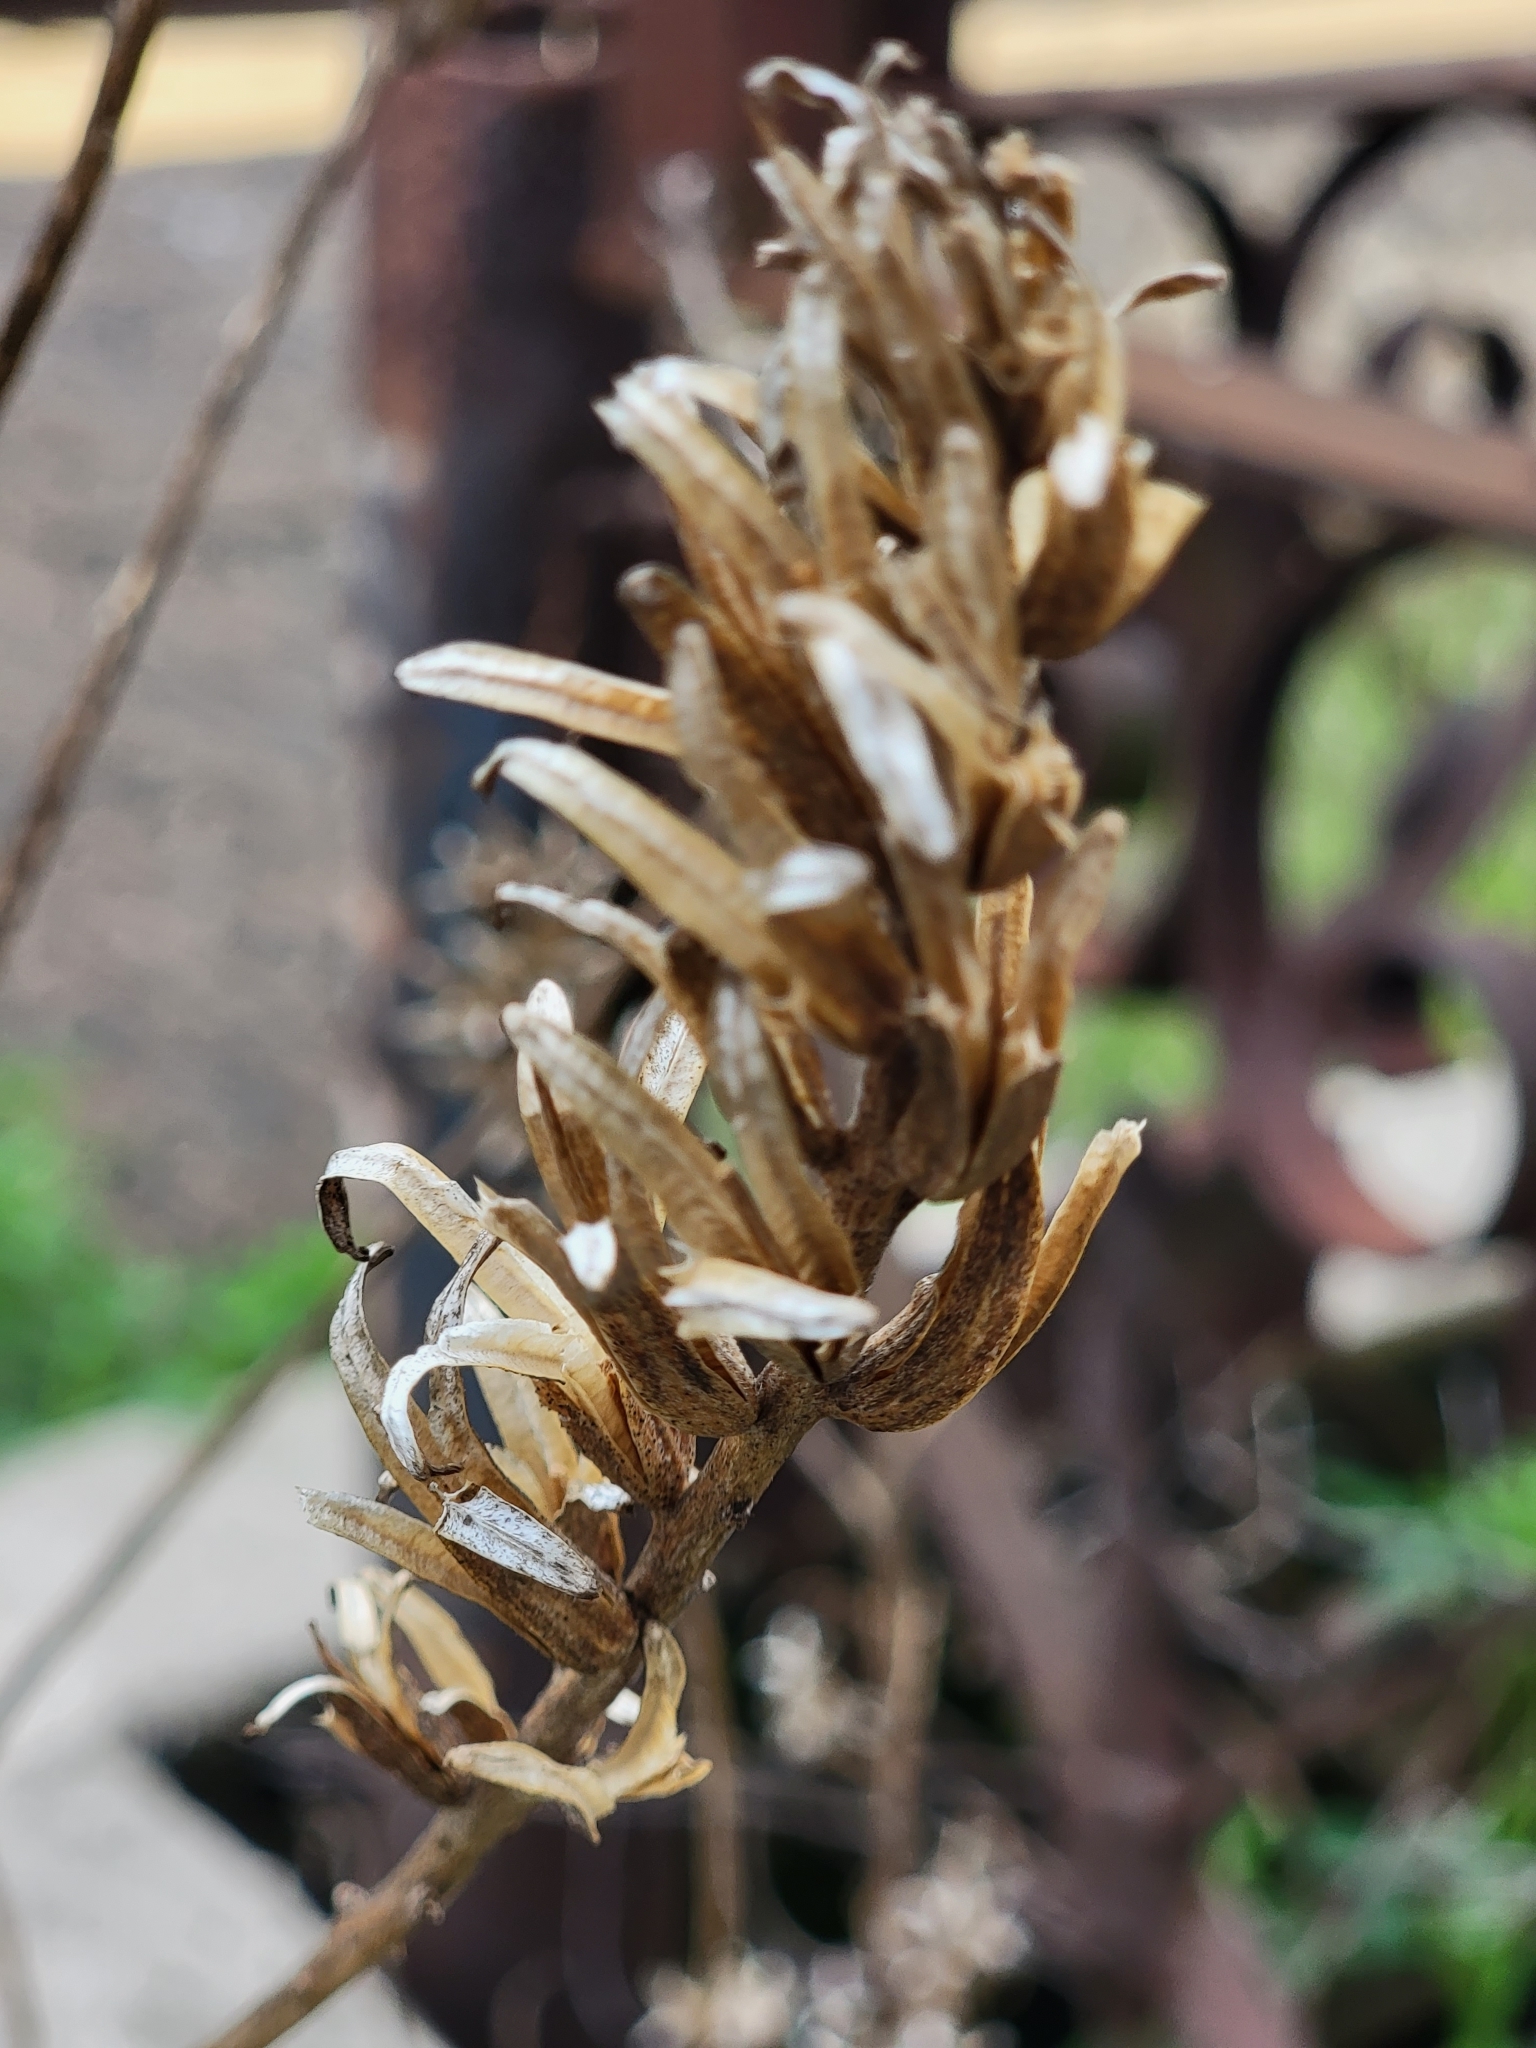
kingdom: Plantae
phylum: Tracheophyta
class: Magnoliopsida
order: Myrtales
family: Onagraceae
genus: Oenothera
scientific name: Oenothera biennis
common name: Common evening-primrose
